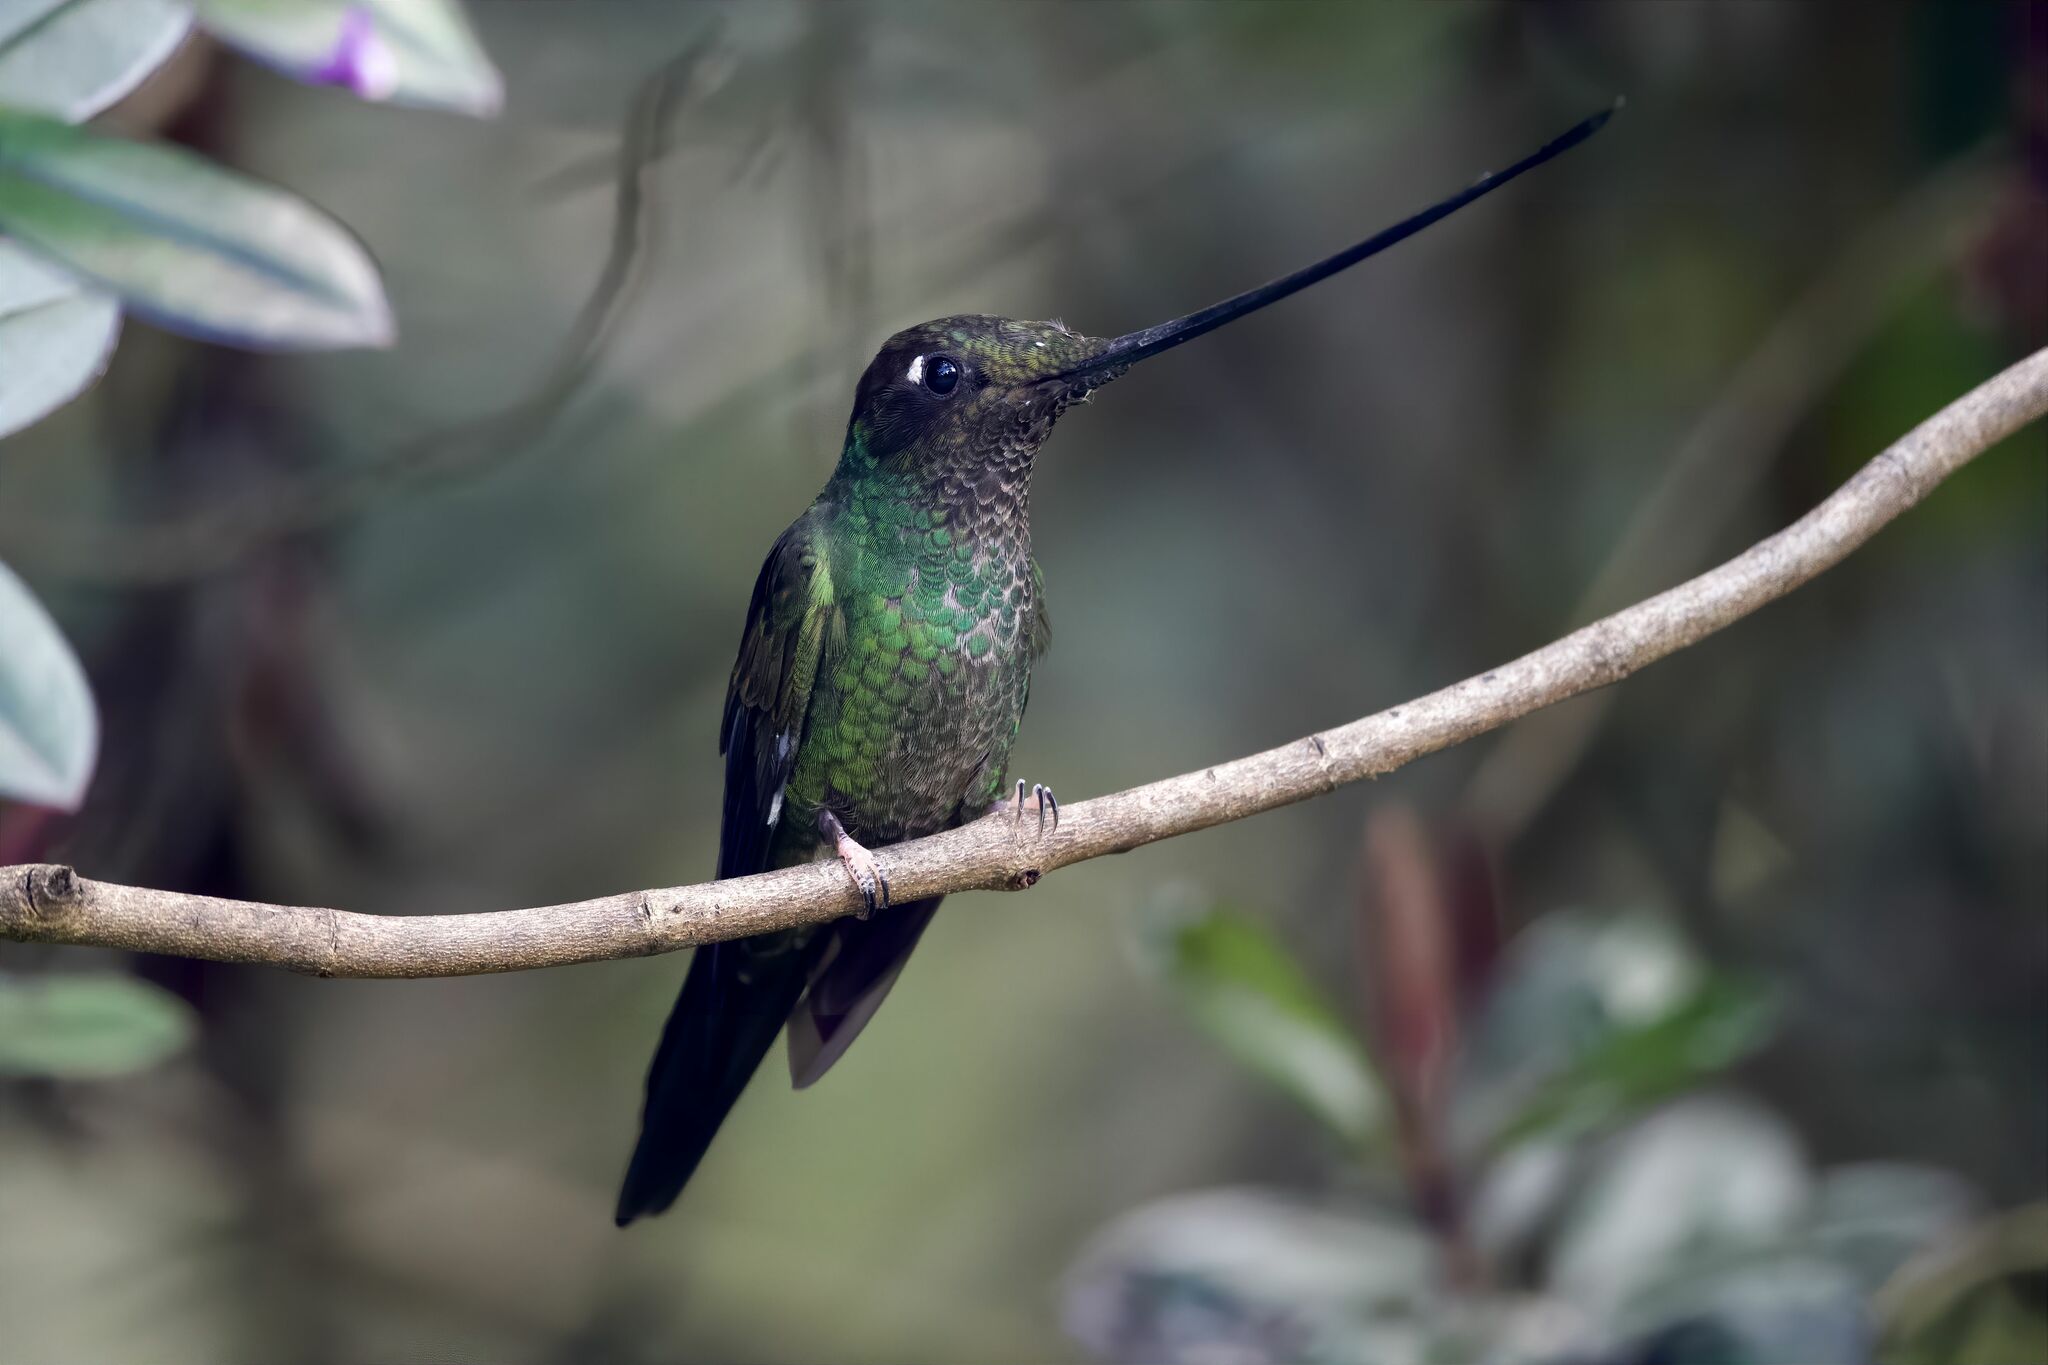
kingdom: Animalia
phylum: Chordata
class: Aves
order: Apodiformes
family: Trochilidae
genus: Ensifera
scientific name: Ensifera ensifera
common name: Sword-billed hummingbird
